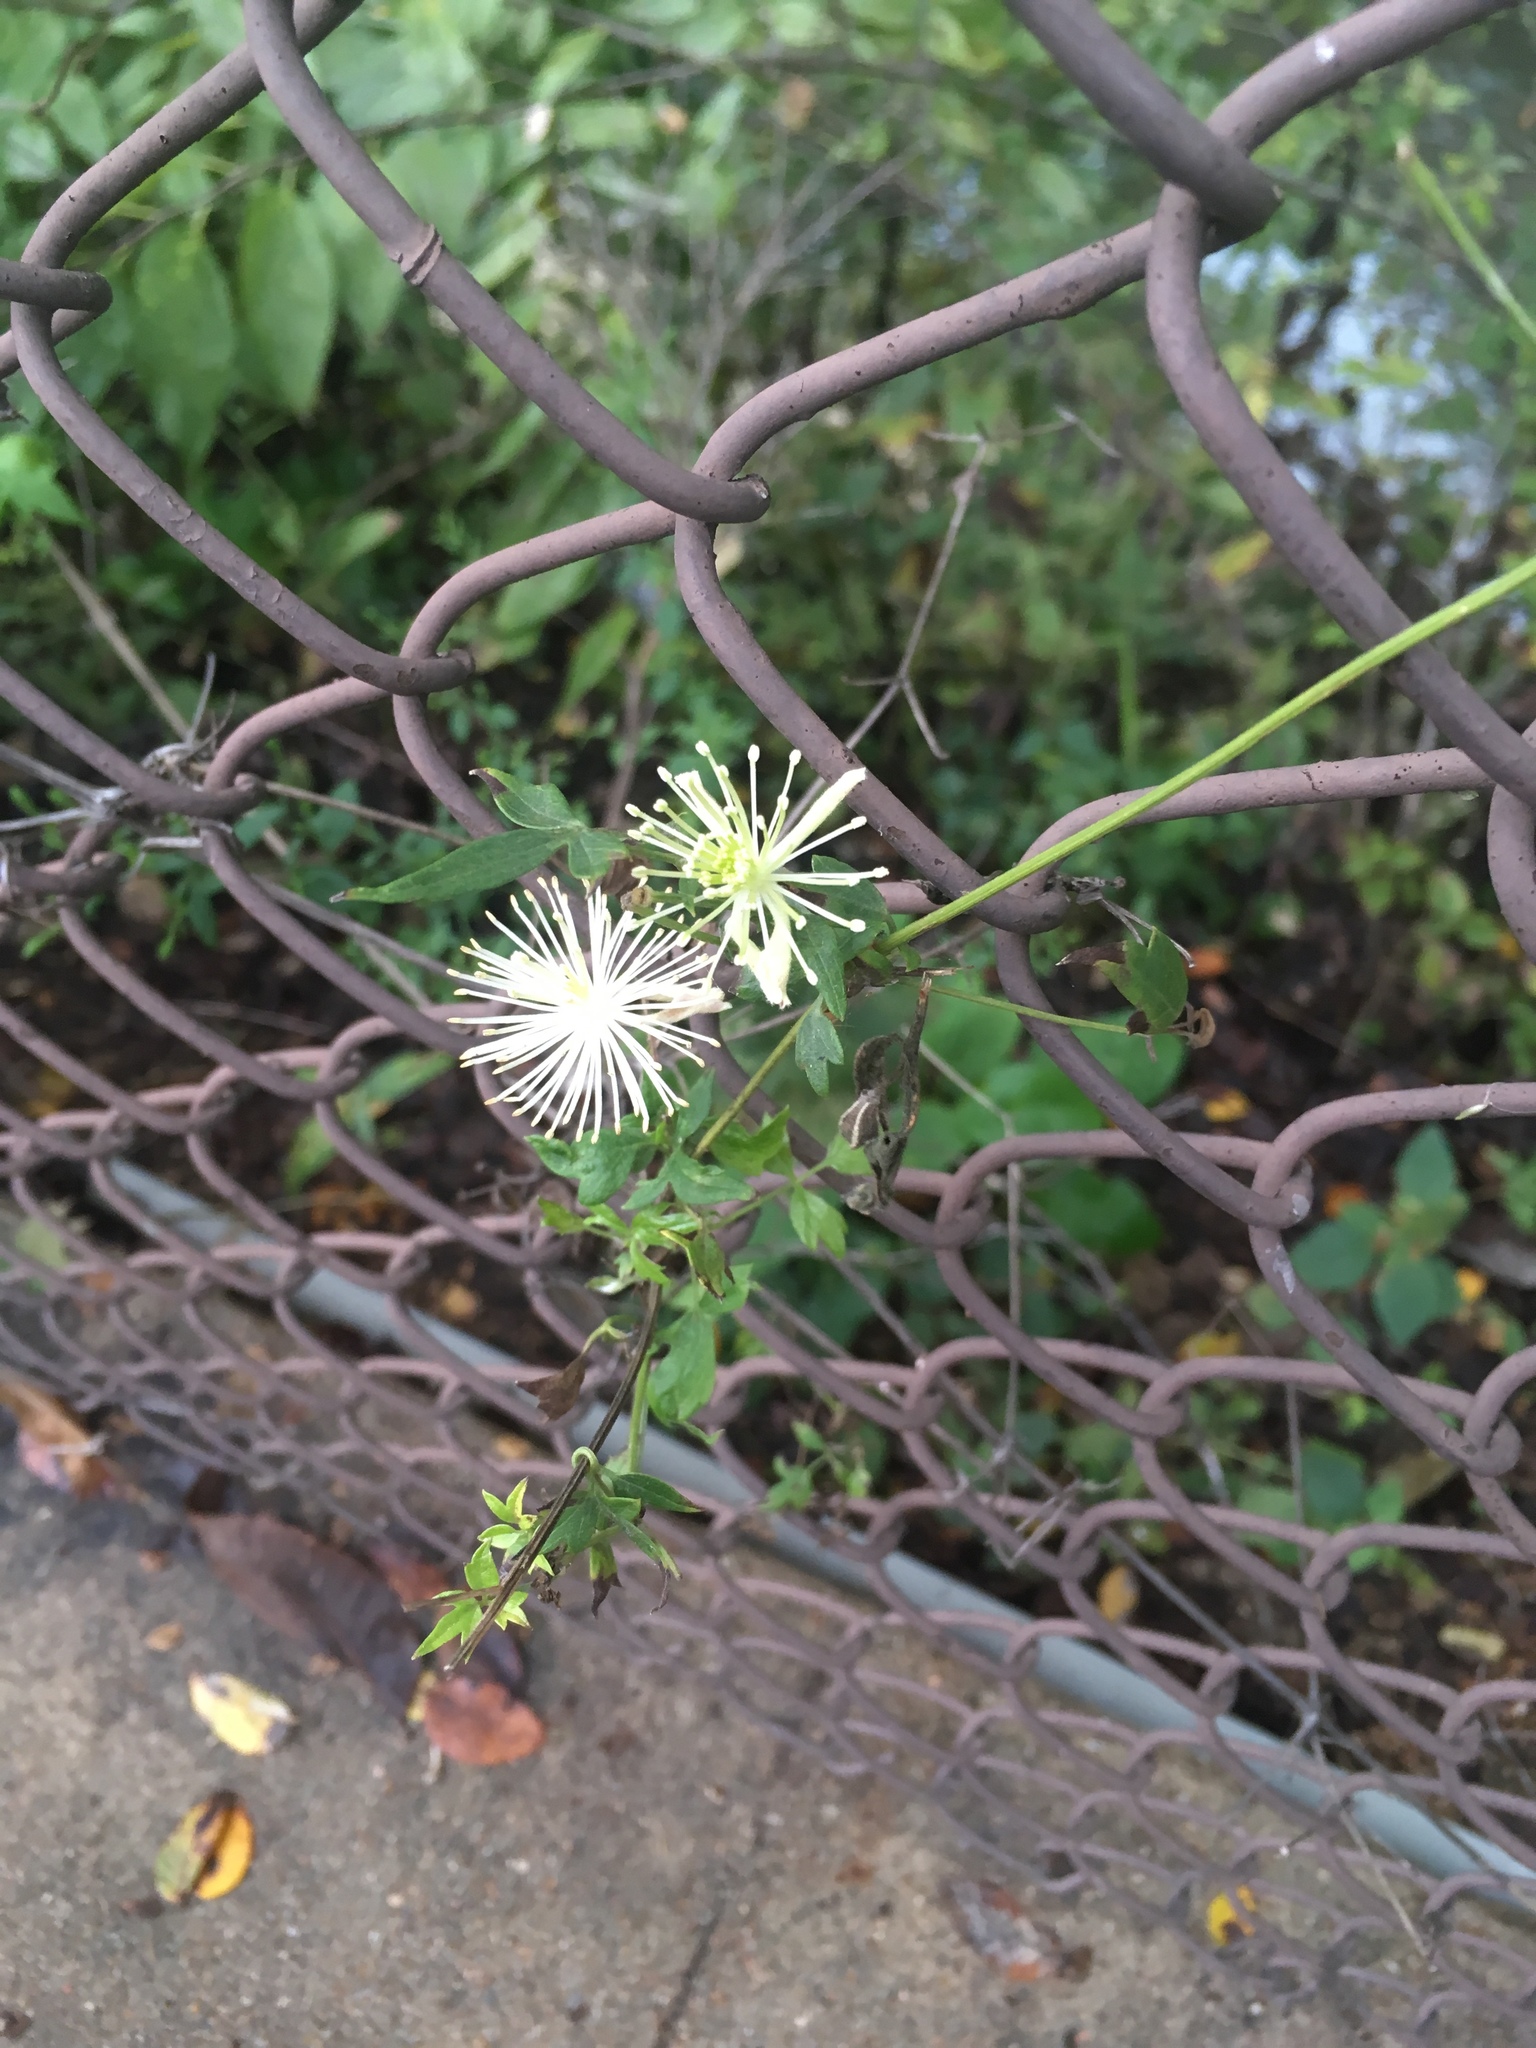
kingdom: Plantae
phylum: Tracheophyta
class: Magnoliopsida
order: Ranunculales
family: Ranunculaceae
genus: Clematis
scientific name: Clematis drummondii
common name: Texas virgin's bower
